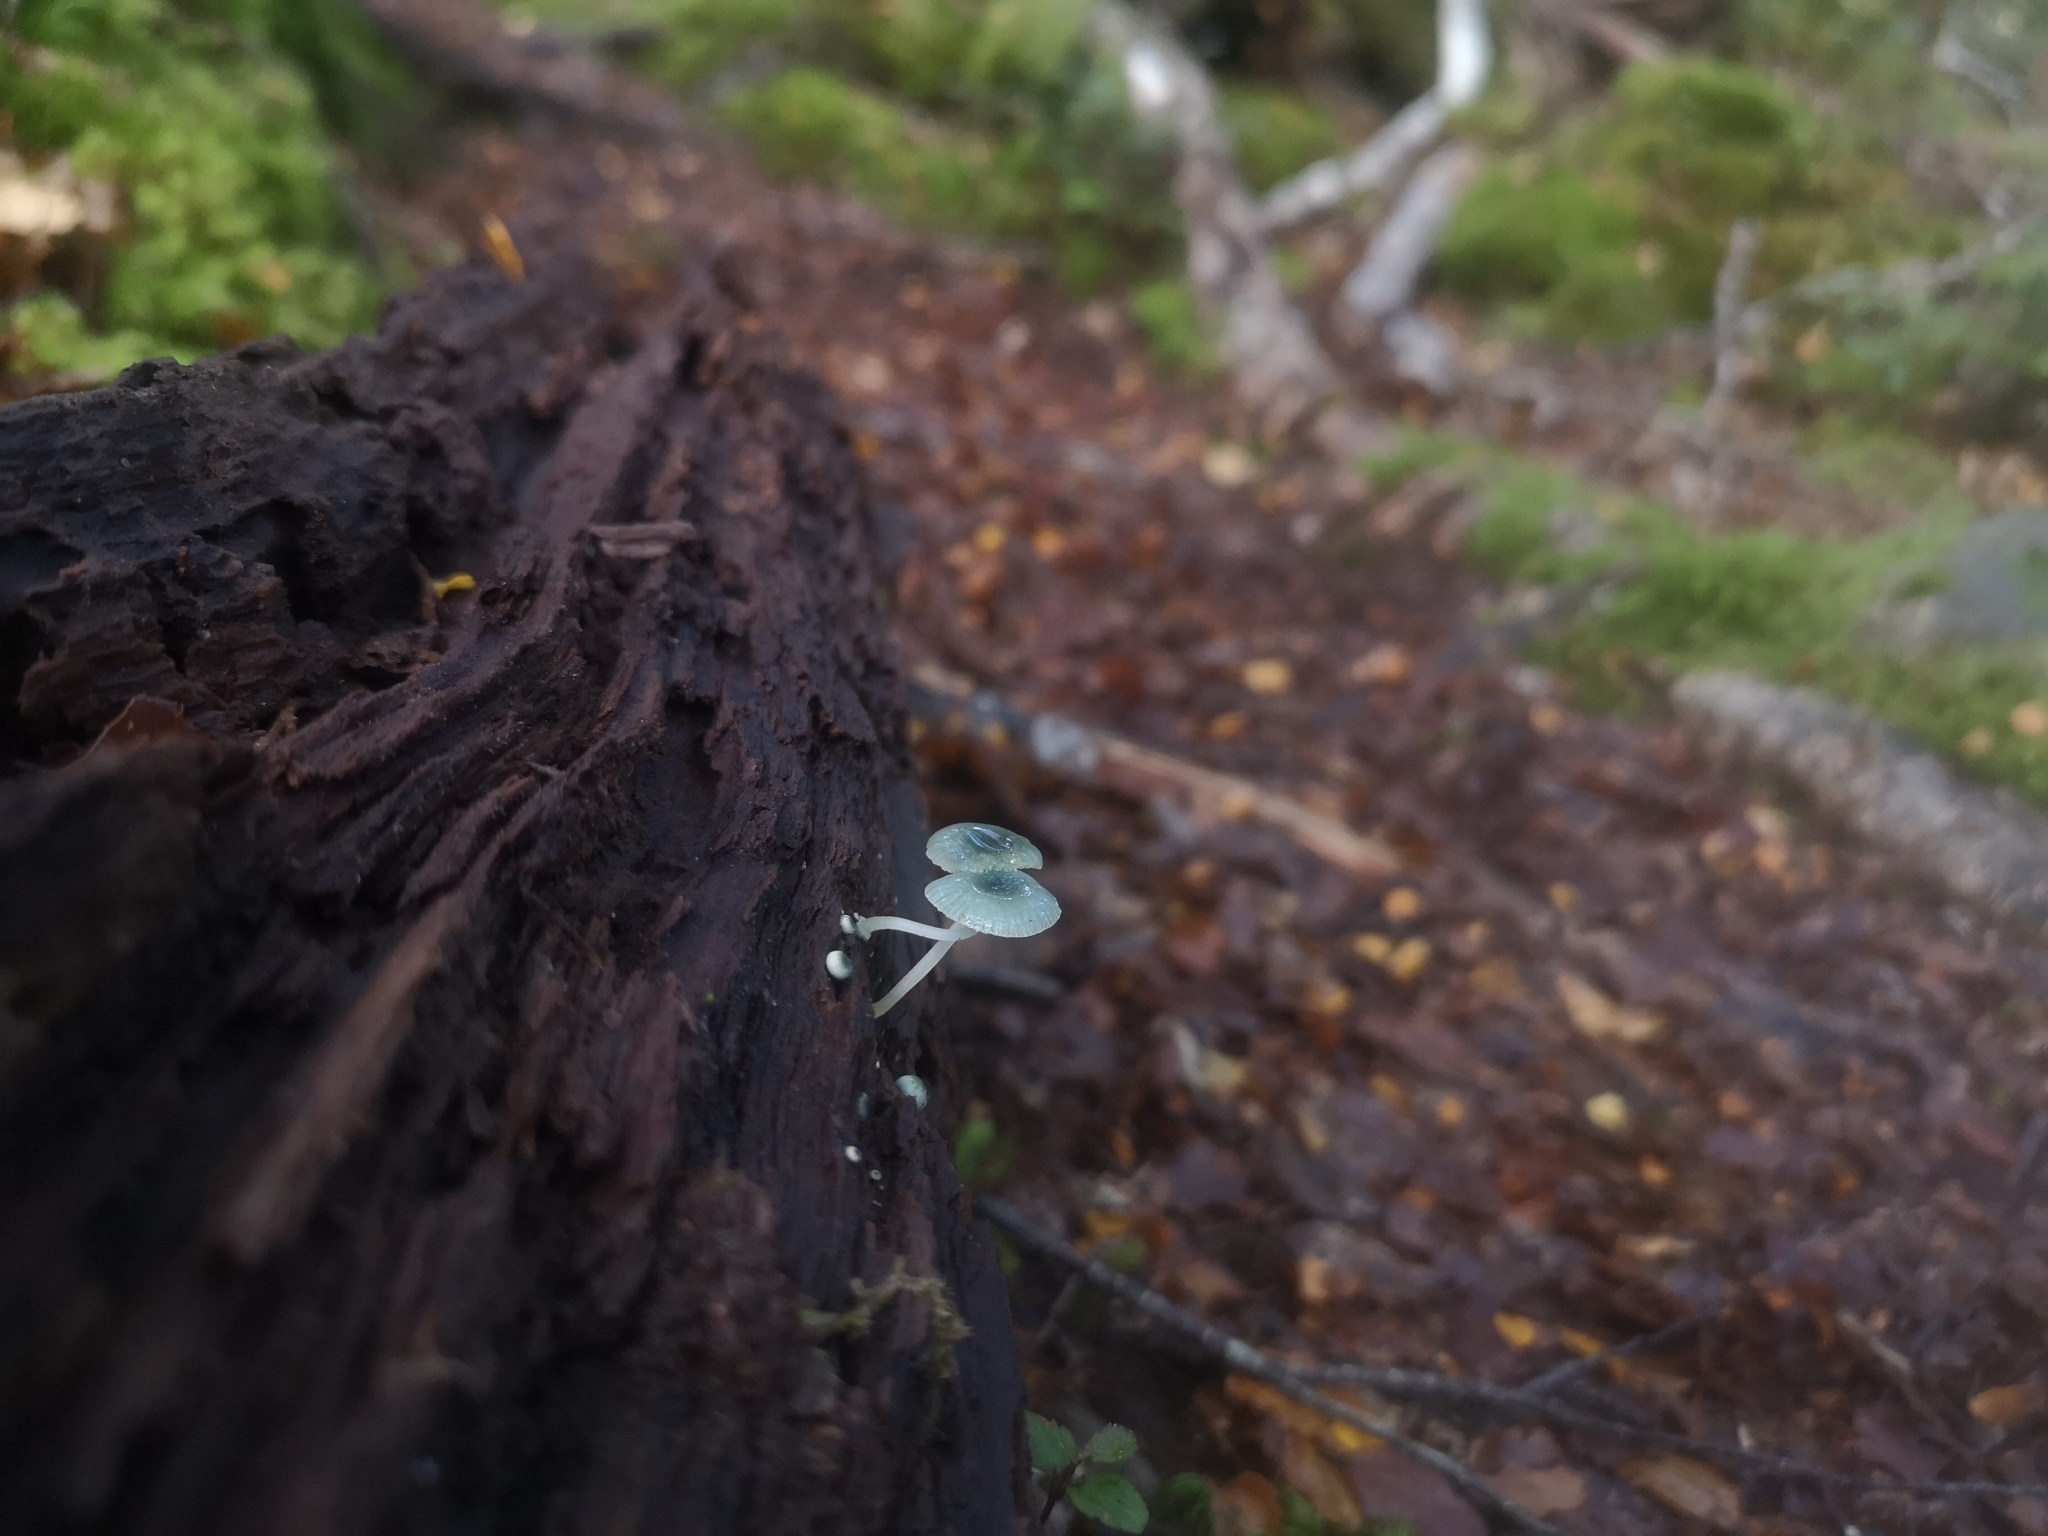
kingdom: Fungi
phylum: Basidiomycota
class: Agaricomycetes
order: Agaricales
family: Mycenaceae
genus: Mycena
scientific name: Mycena interrupta
